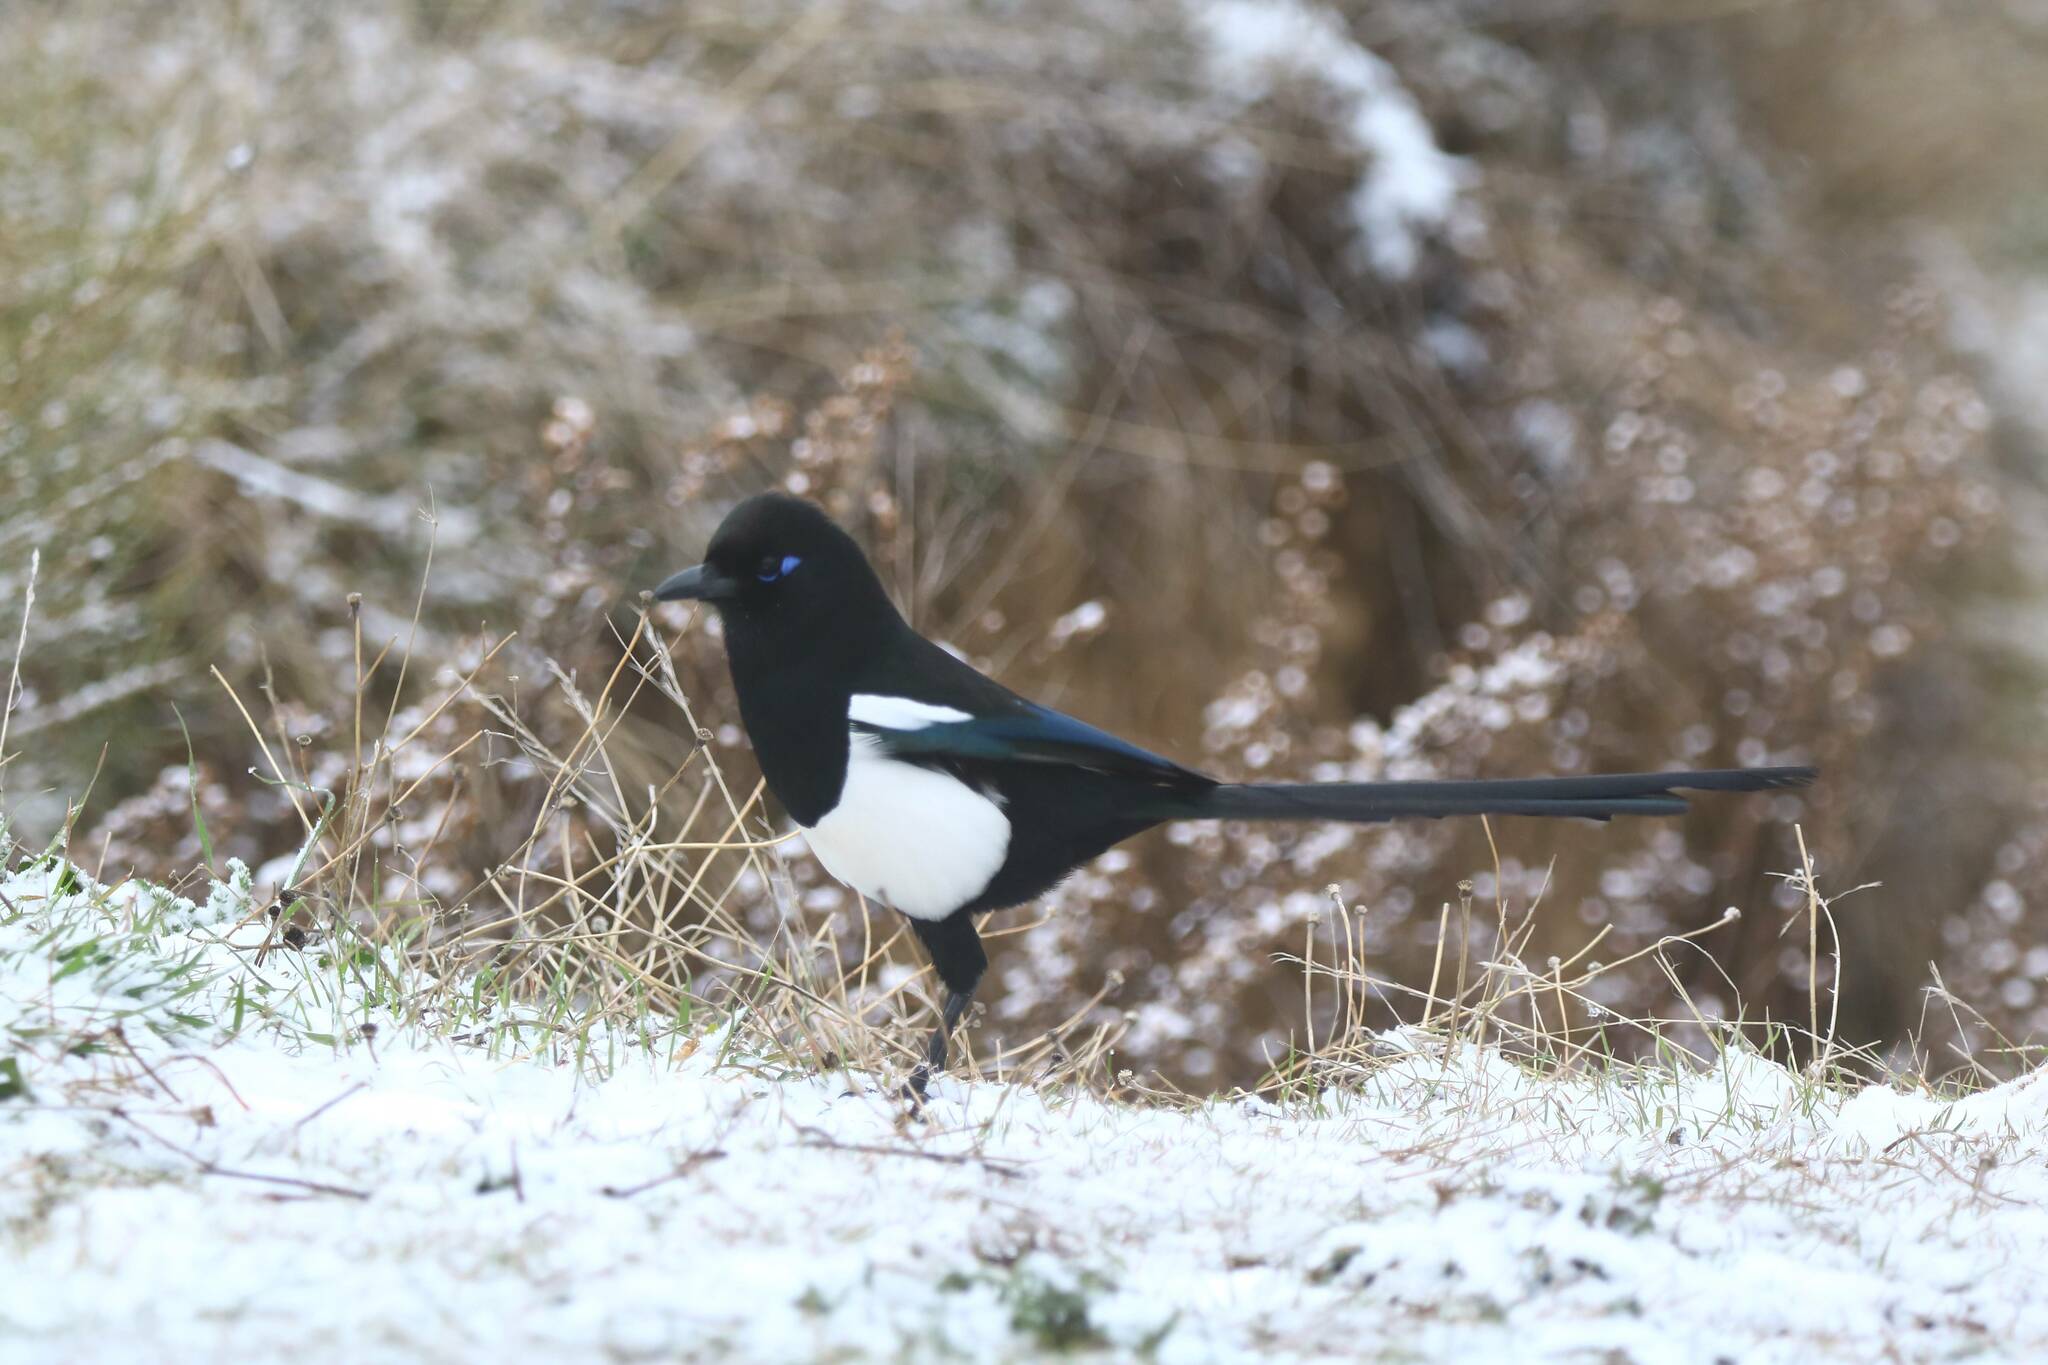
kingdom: Animalia
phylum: Chordata
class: Aves
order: Passeriformes
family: Corvidae
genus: Pica
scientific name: Pica mauritanica
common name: Maghreb magpie
